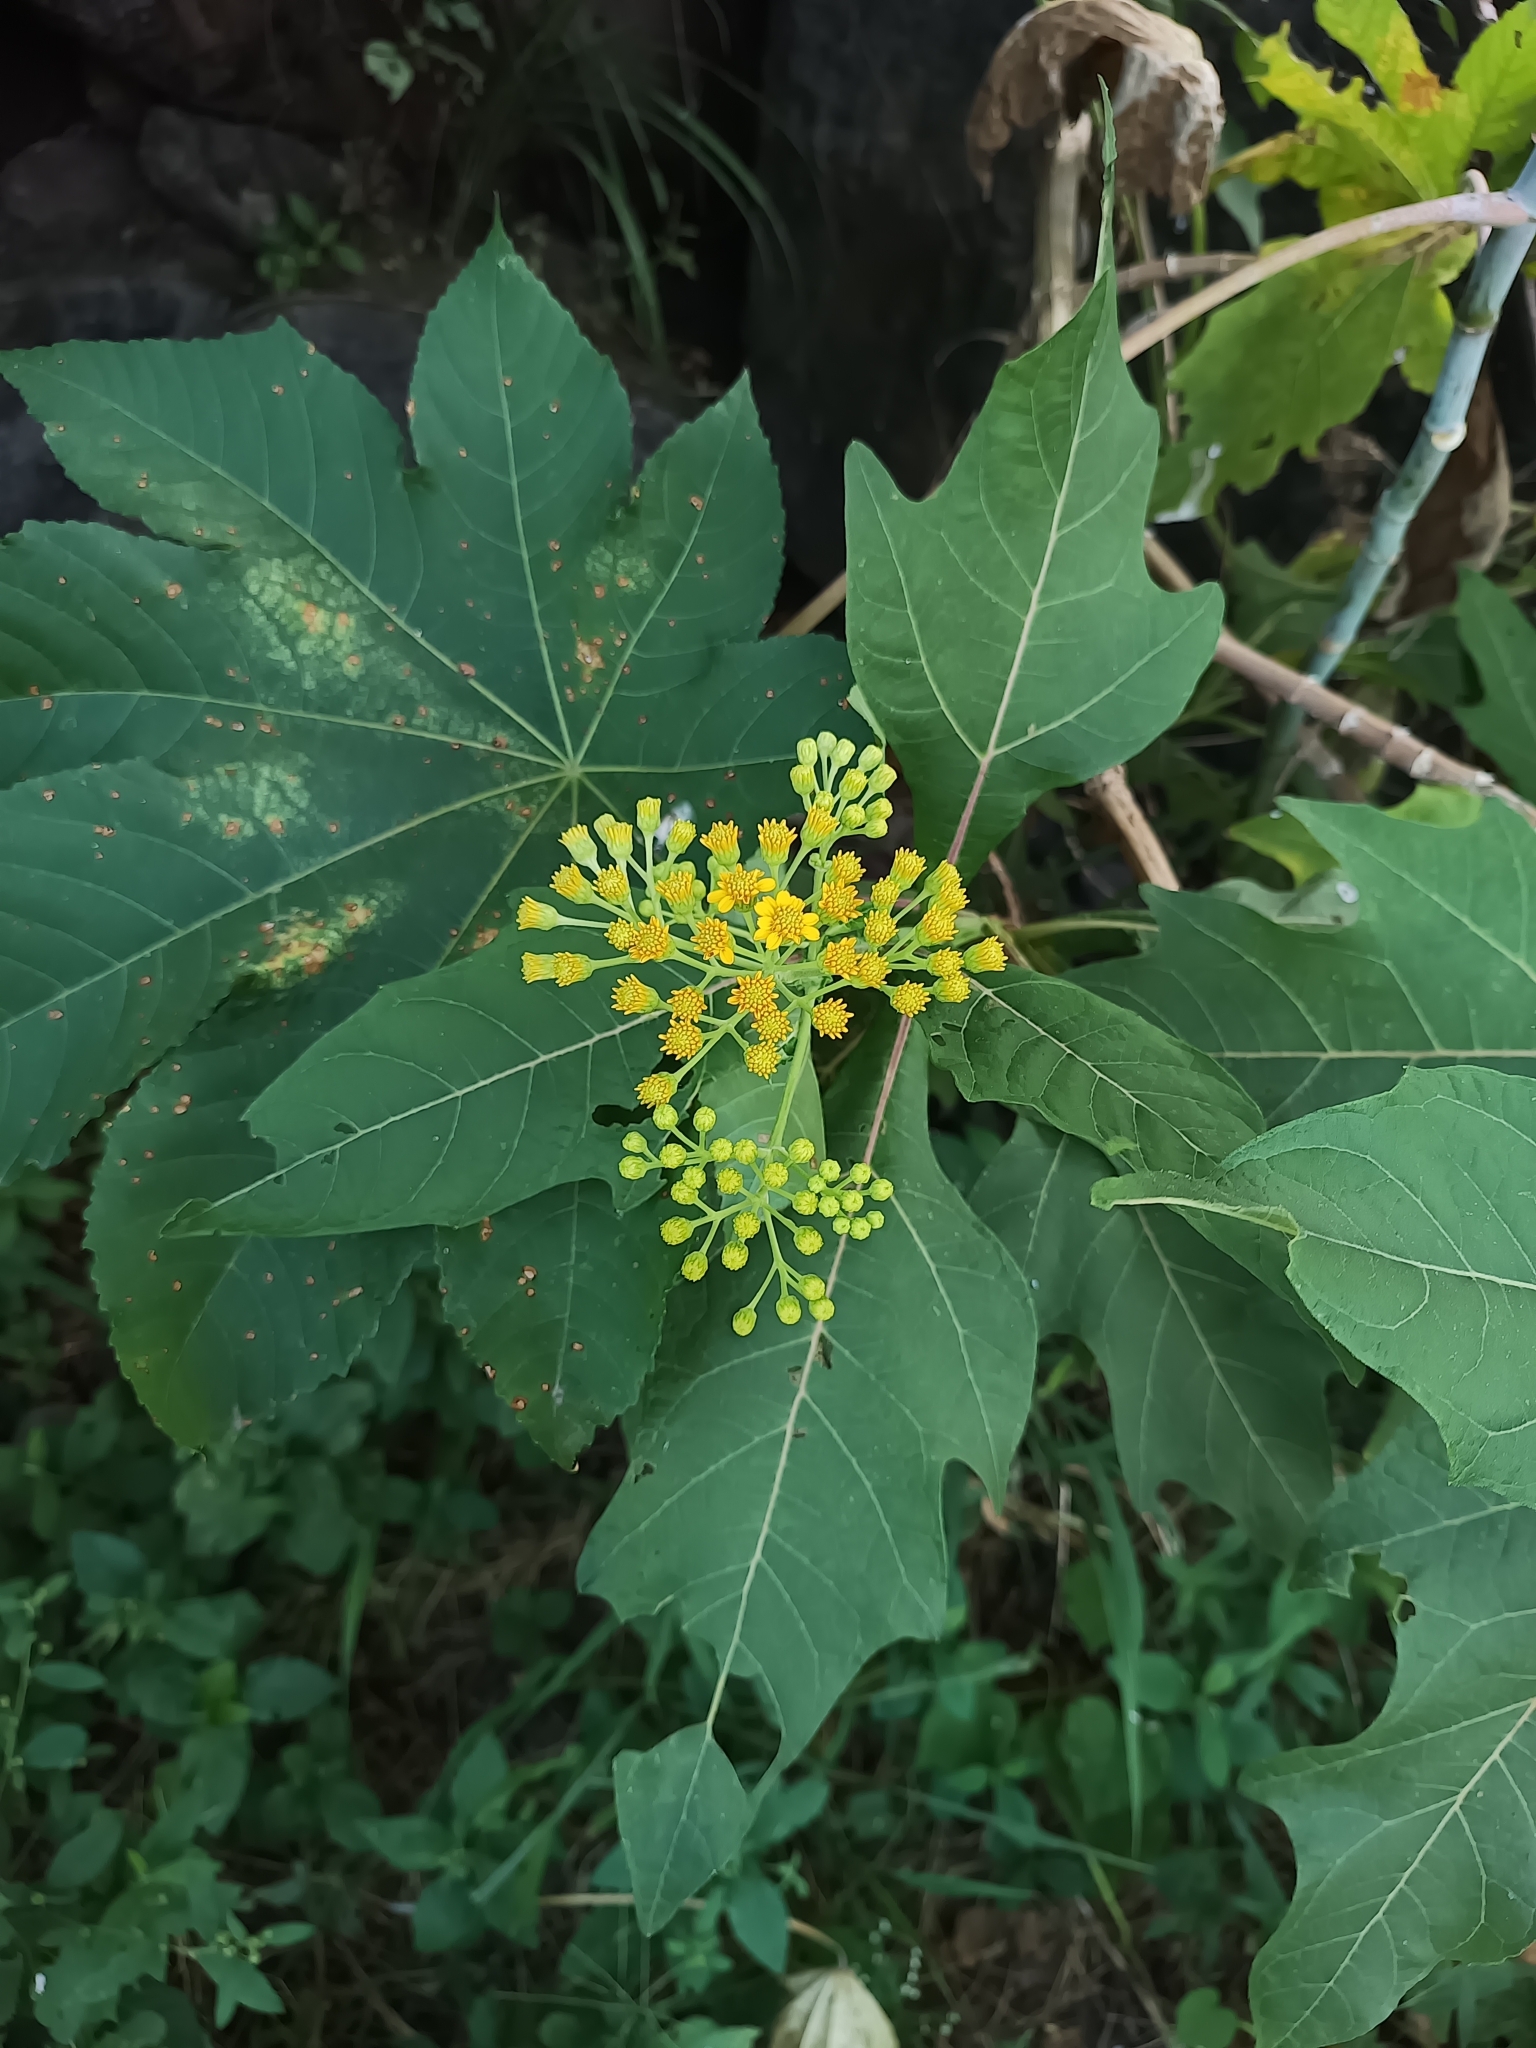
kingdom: Plantae
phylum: Tracheophyta
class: Magnoliopsida
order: Asterales
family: Asteraceae
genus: Verbesina
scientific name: Verbesina fastigiata
